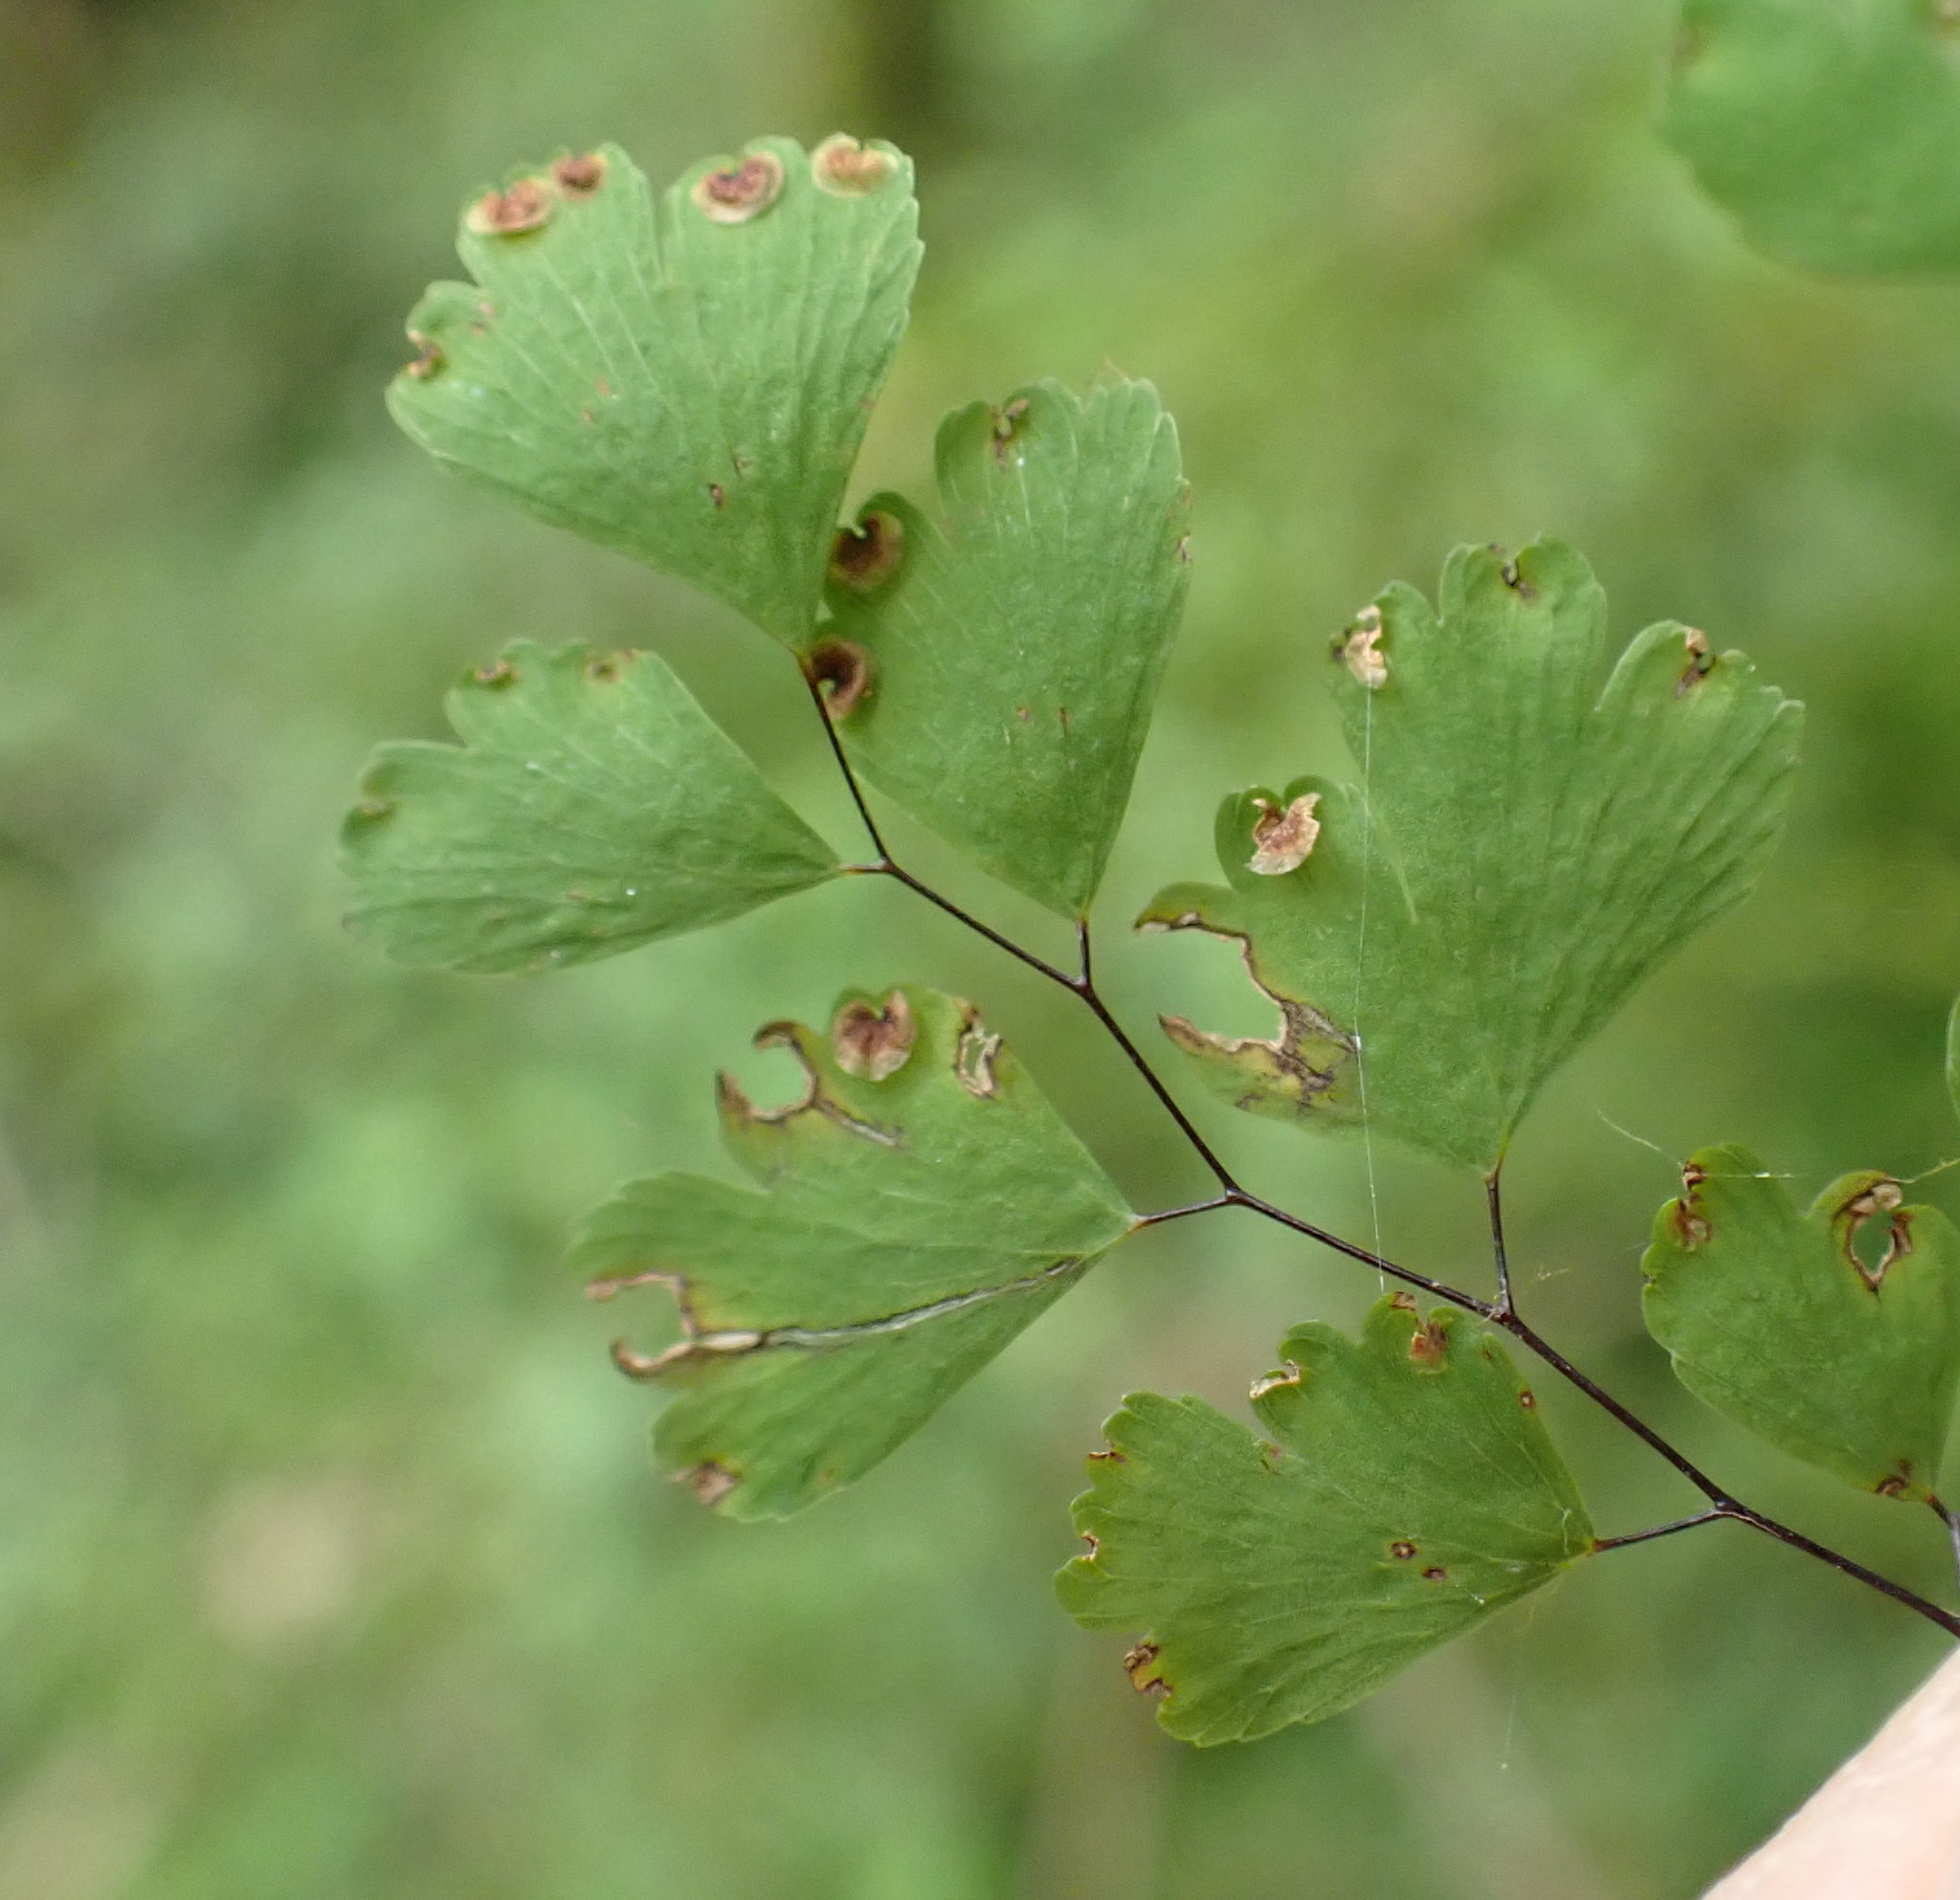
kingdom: Plantae
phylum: Tracheophyta
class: Polypodiopsida
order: Polypodiales
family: Pteridaceae
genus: Adiantum
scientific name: Adiantum raddianum
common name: Delta maidenhair fern
